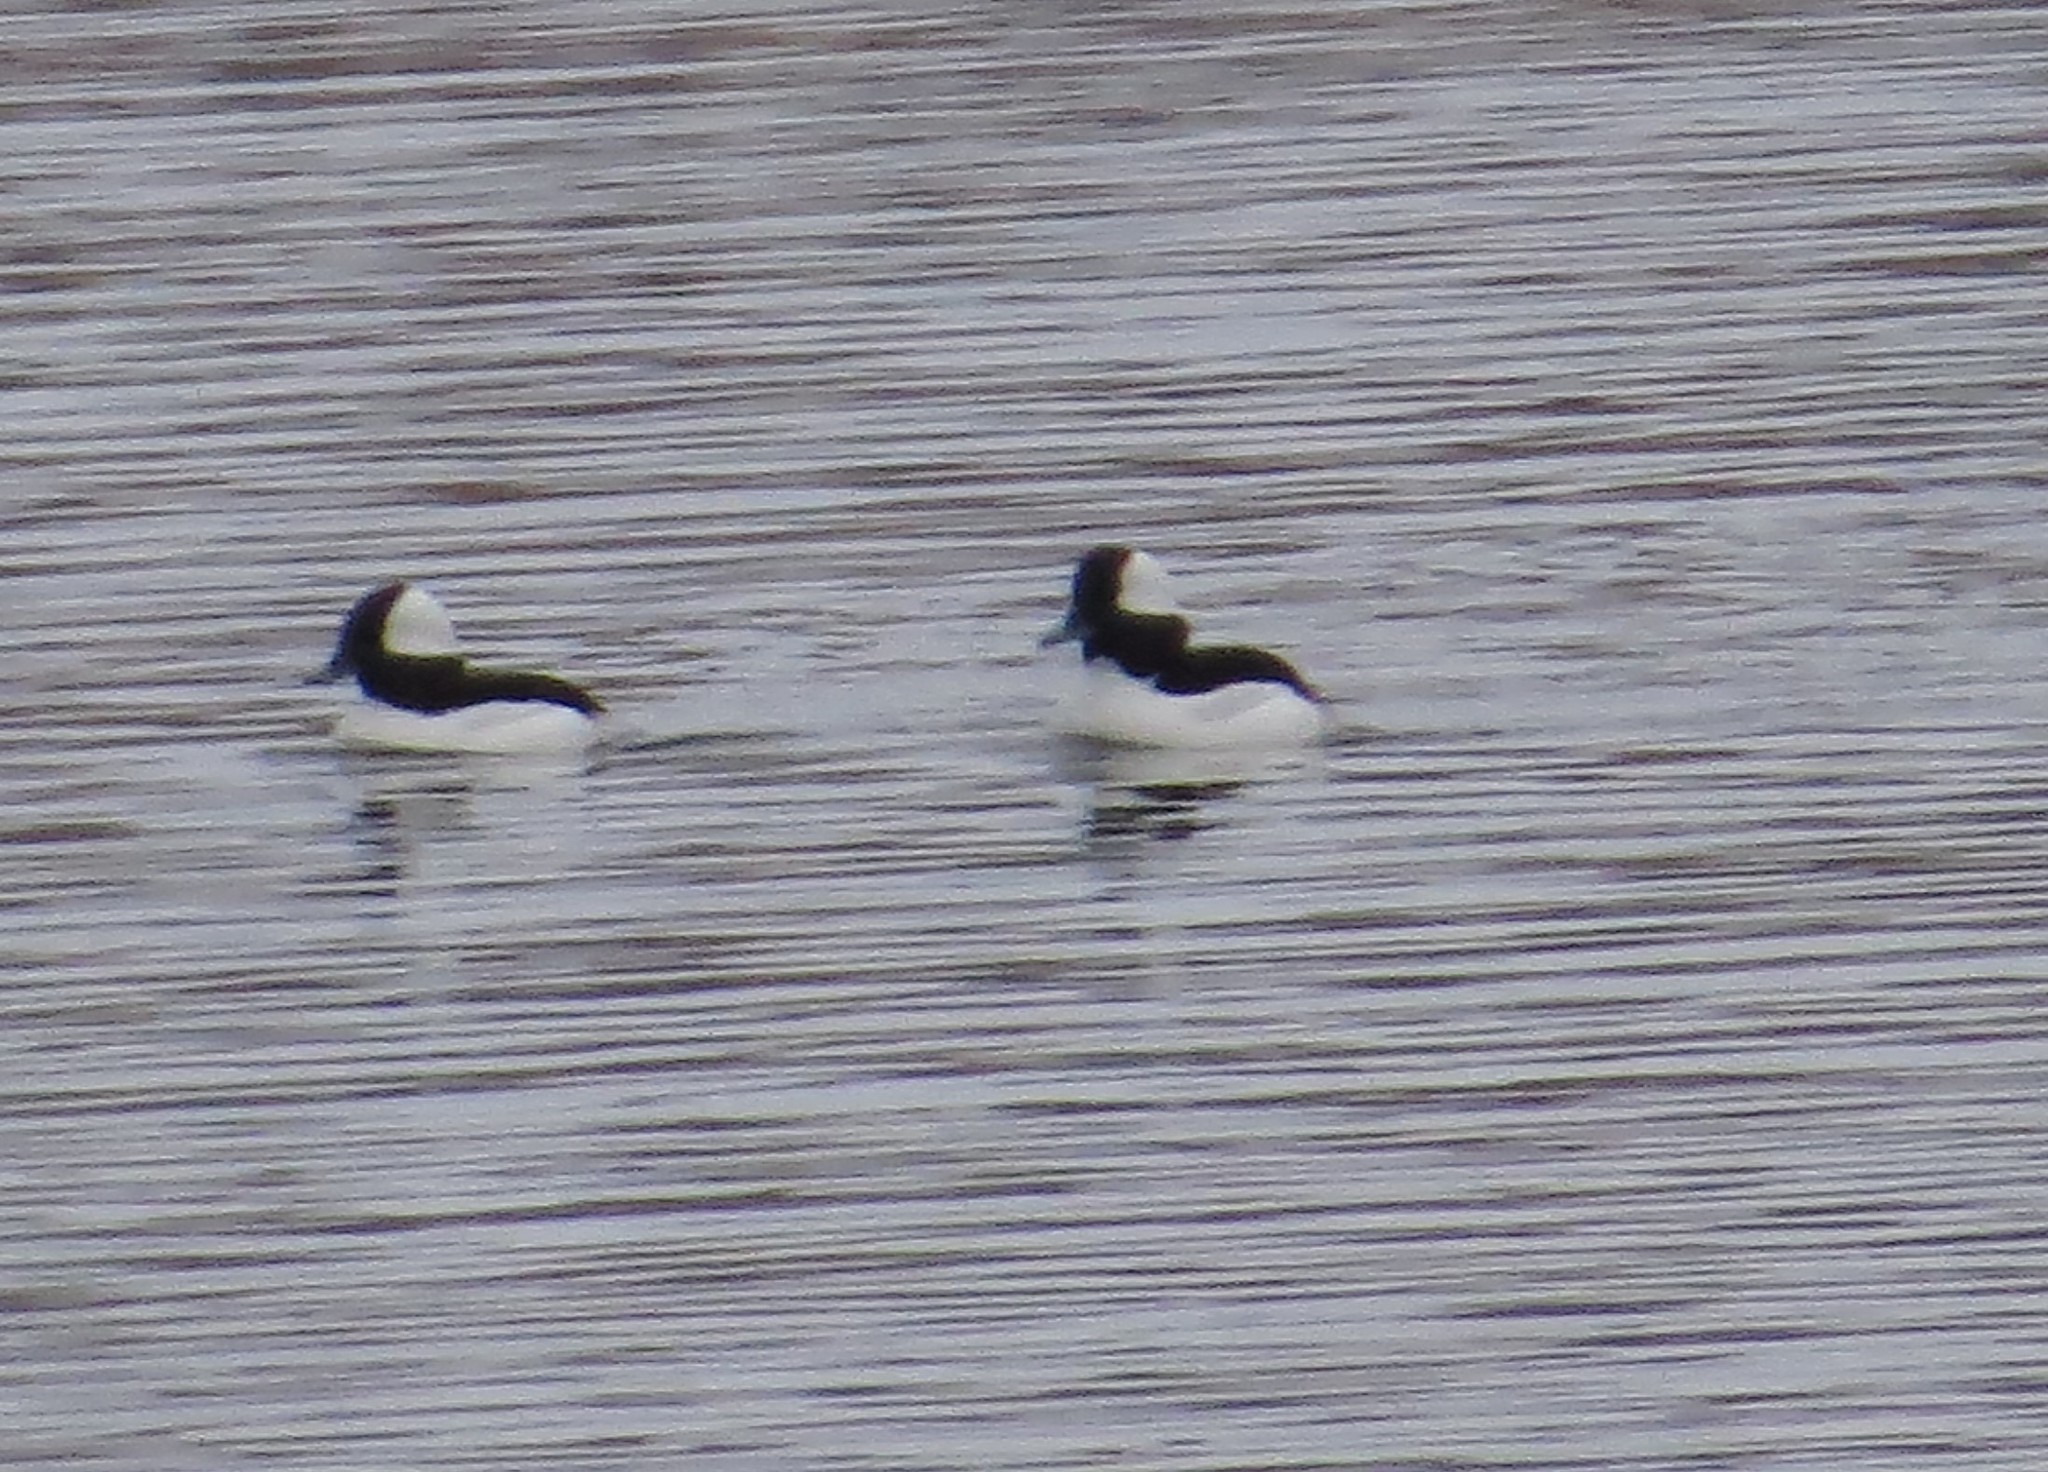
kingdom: Animalia
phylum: Chordata
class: Aves
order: Anseriformes
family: Anatidae
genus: Bucephala
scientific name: Bucephala albeola
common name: Bufflehead
